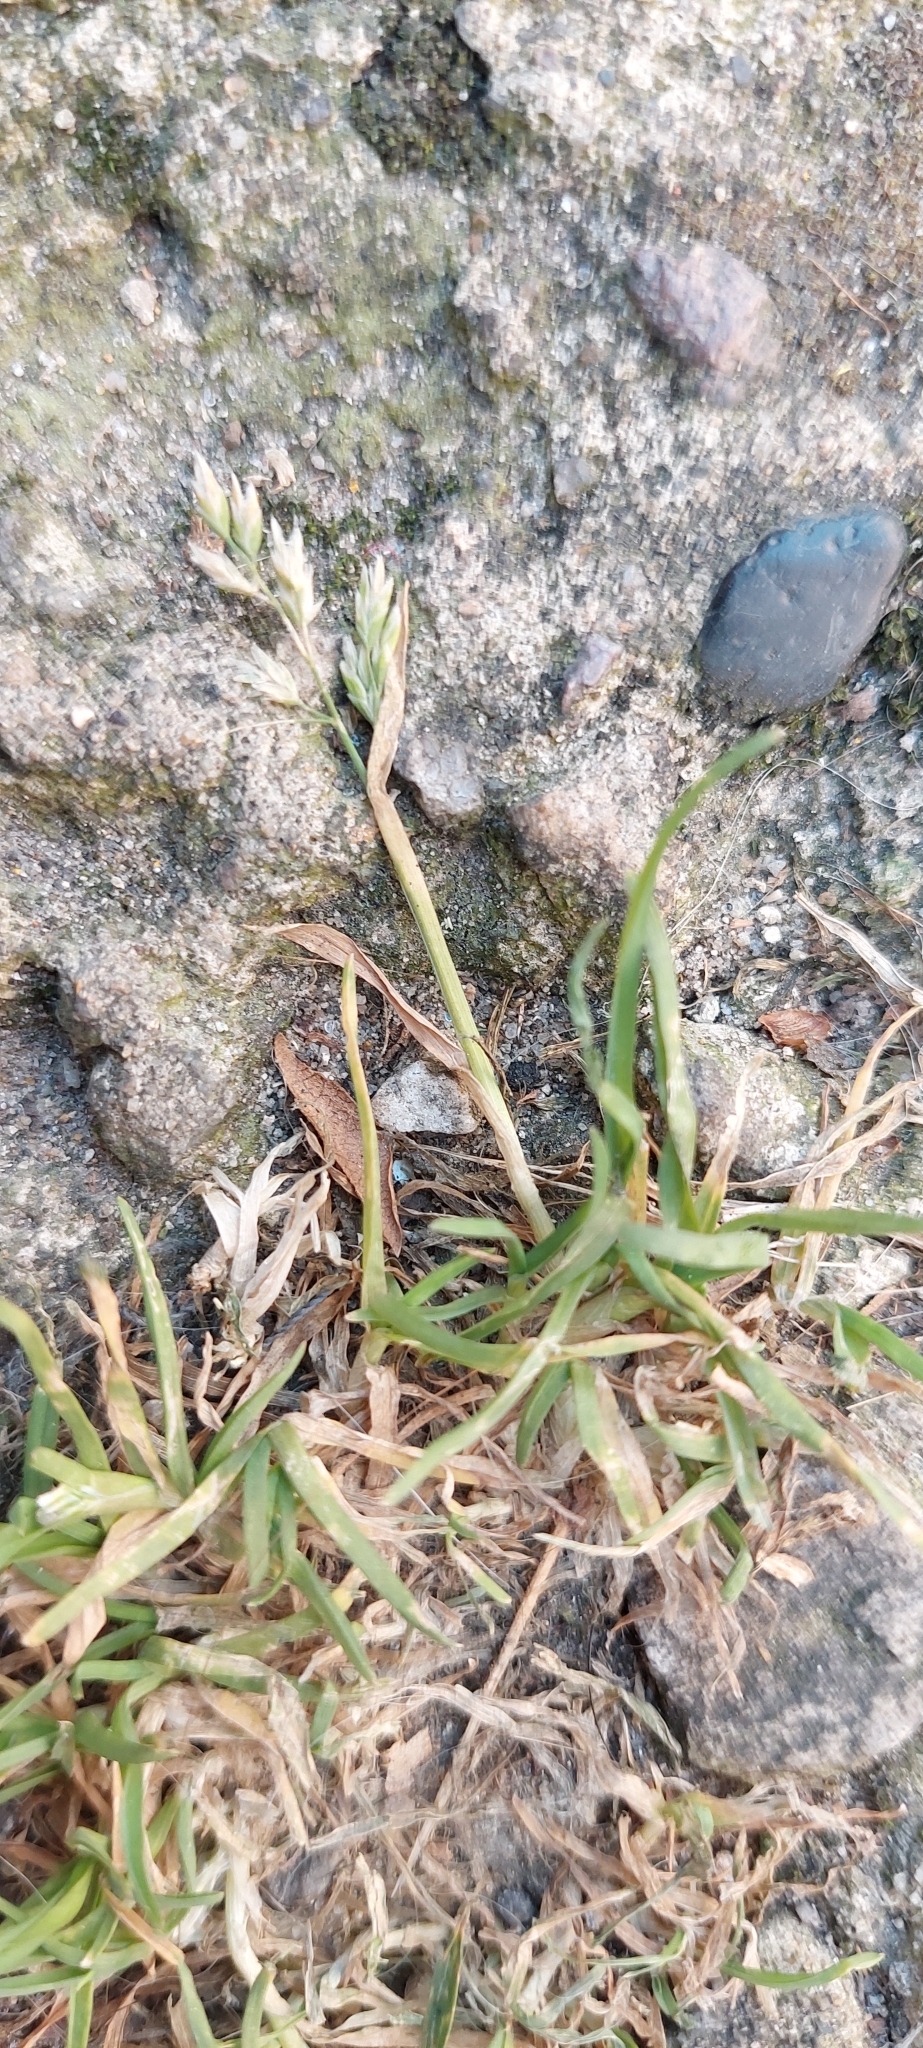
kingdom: Plantae
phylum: Tracheophyta
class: Liliopsida
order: Poales
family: Poaceae
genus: Poa
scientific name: Poa annua
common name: Annual bluegrass
